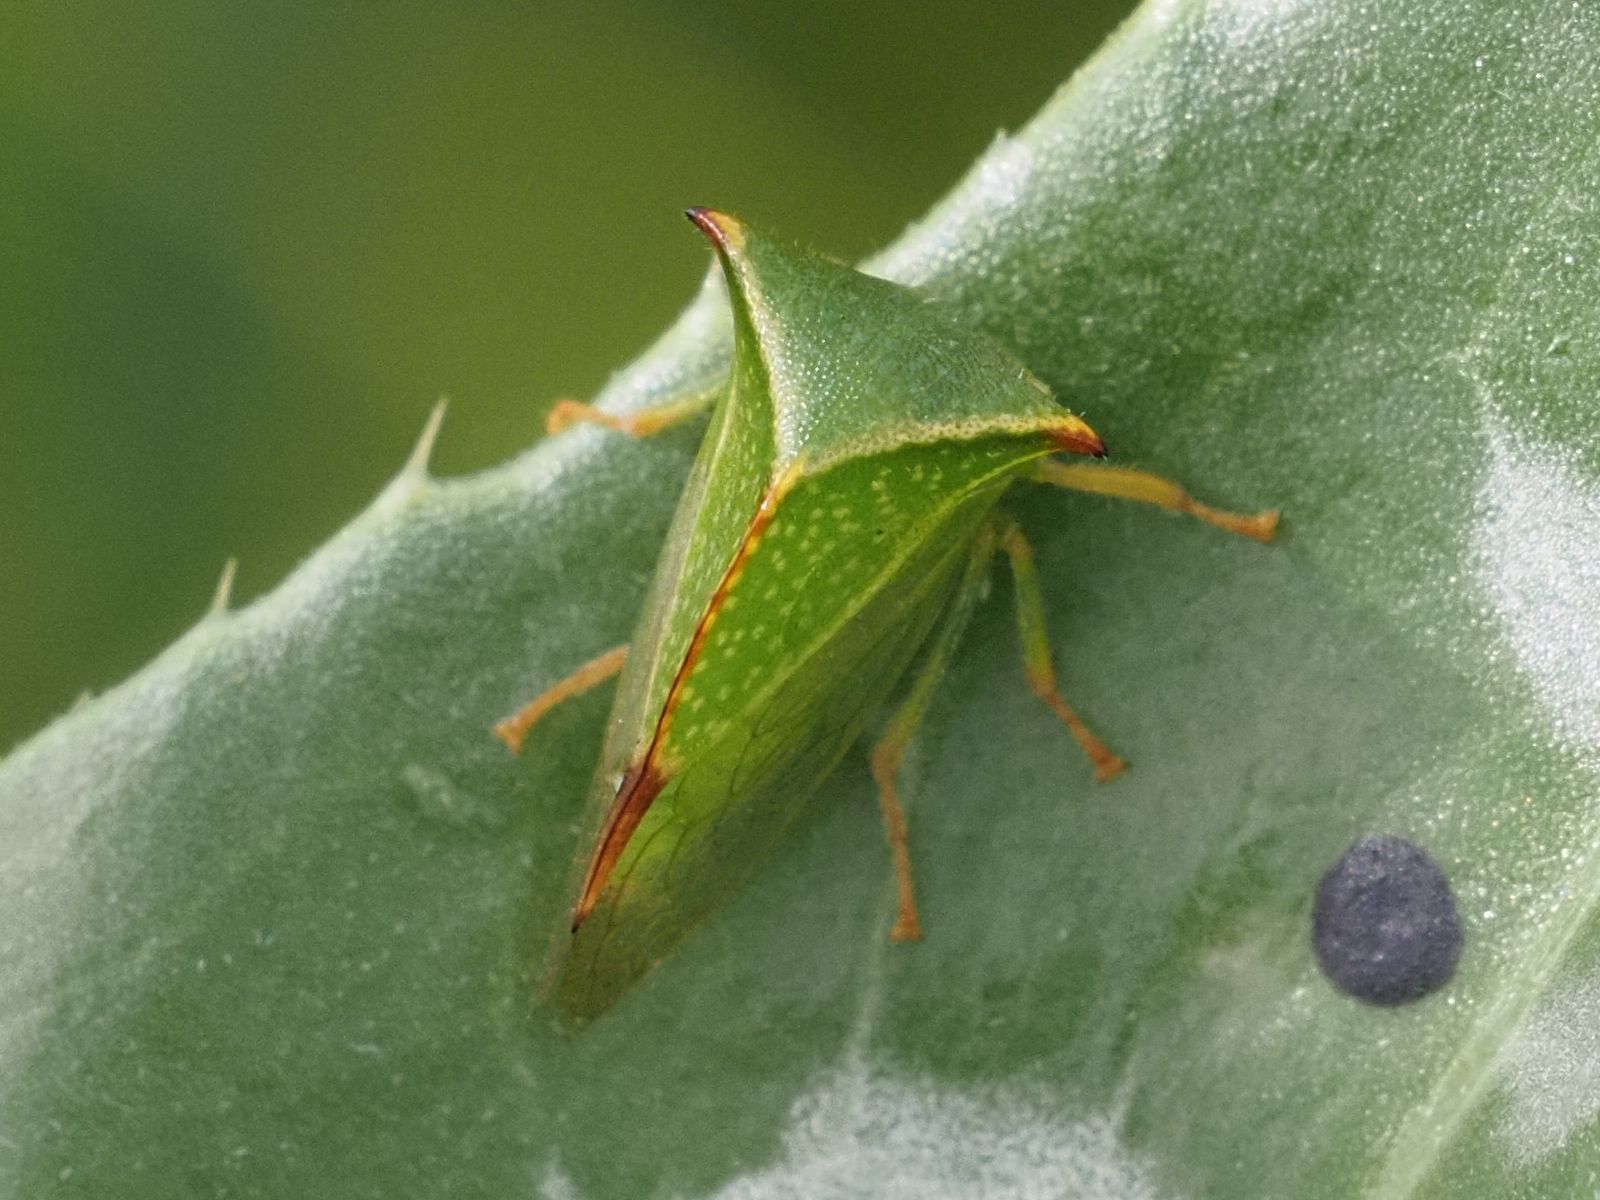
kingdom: Animalia
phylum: Arthropoda
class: Insecta
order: Hemiptera
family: Membracidae
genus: Stictocephala
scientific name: Stictocephala bisonia
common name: American buffalo treehopper
